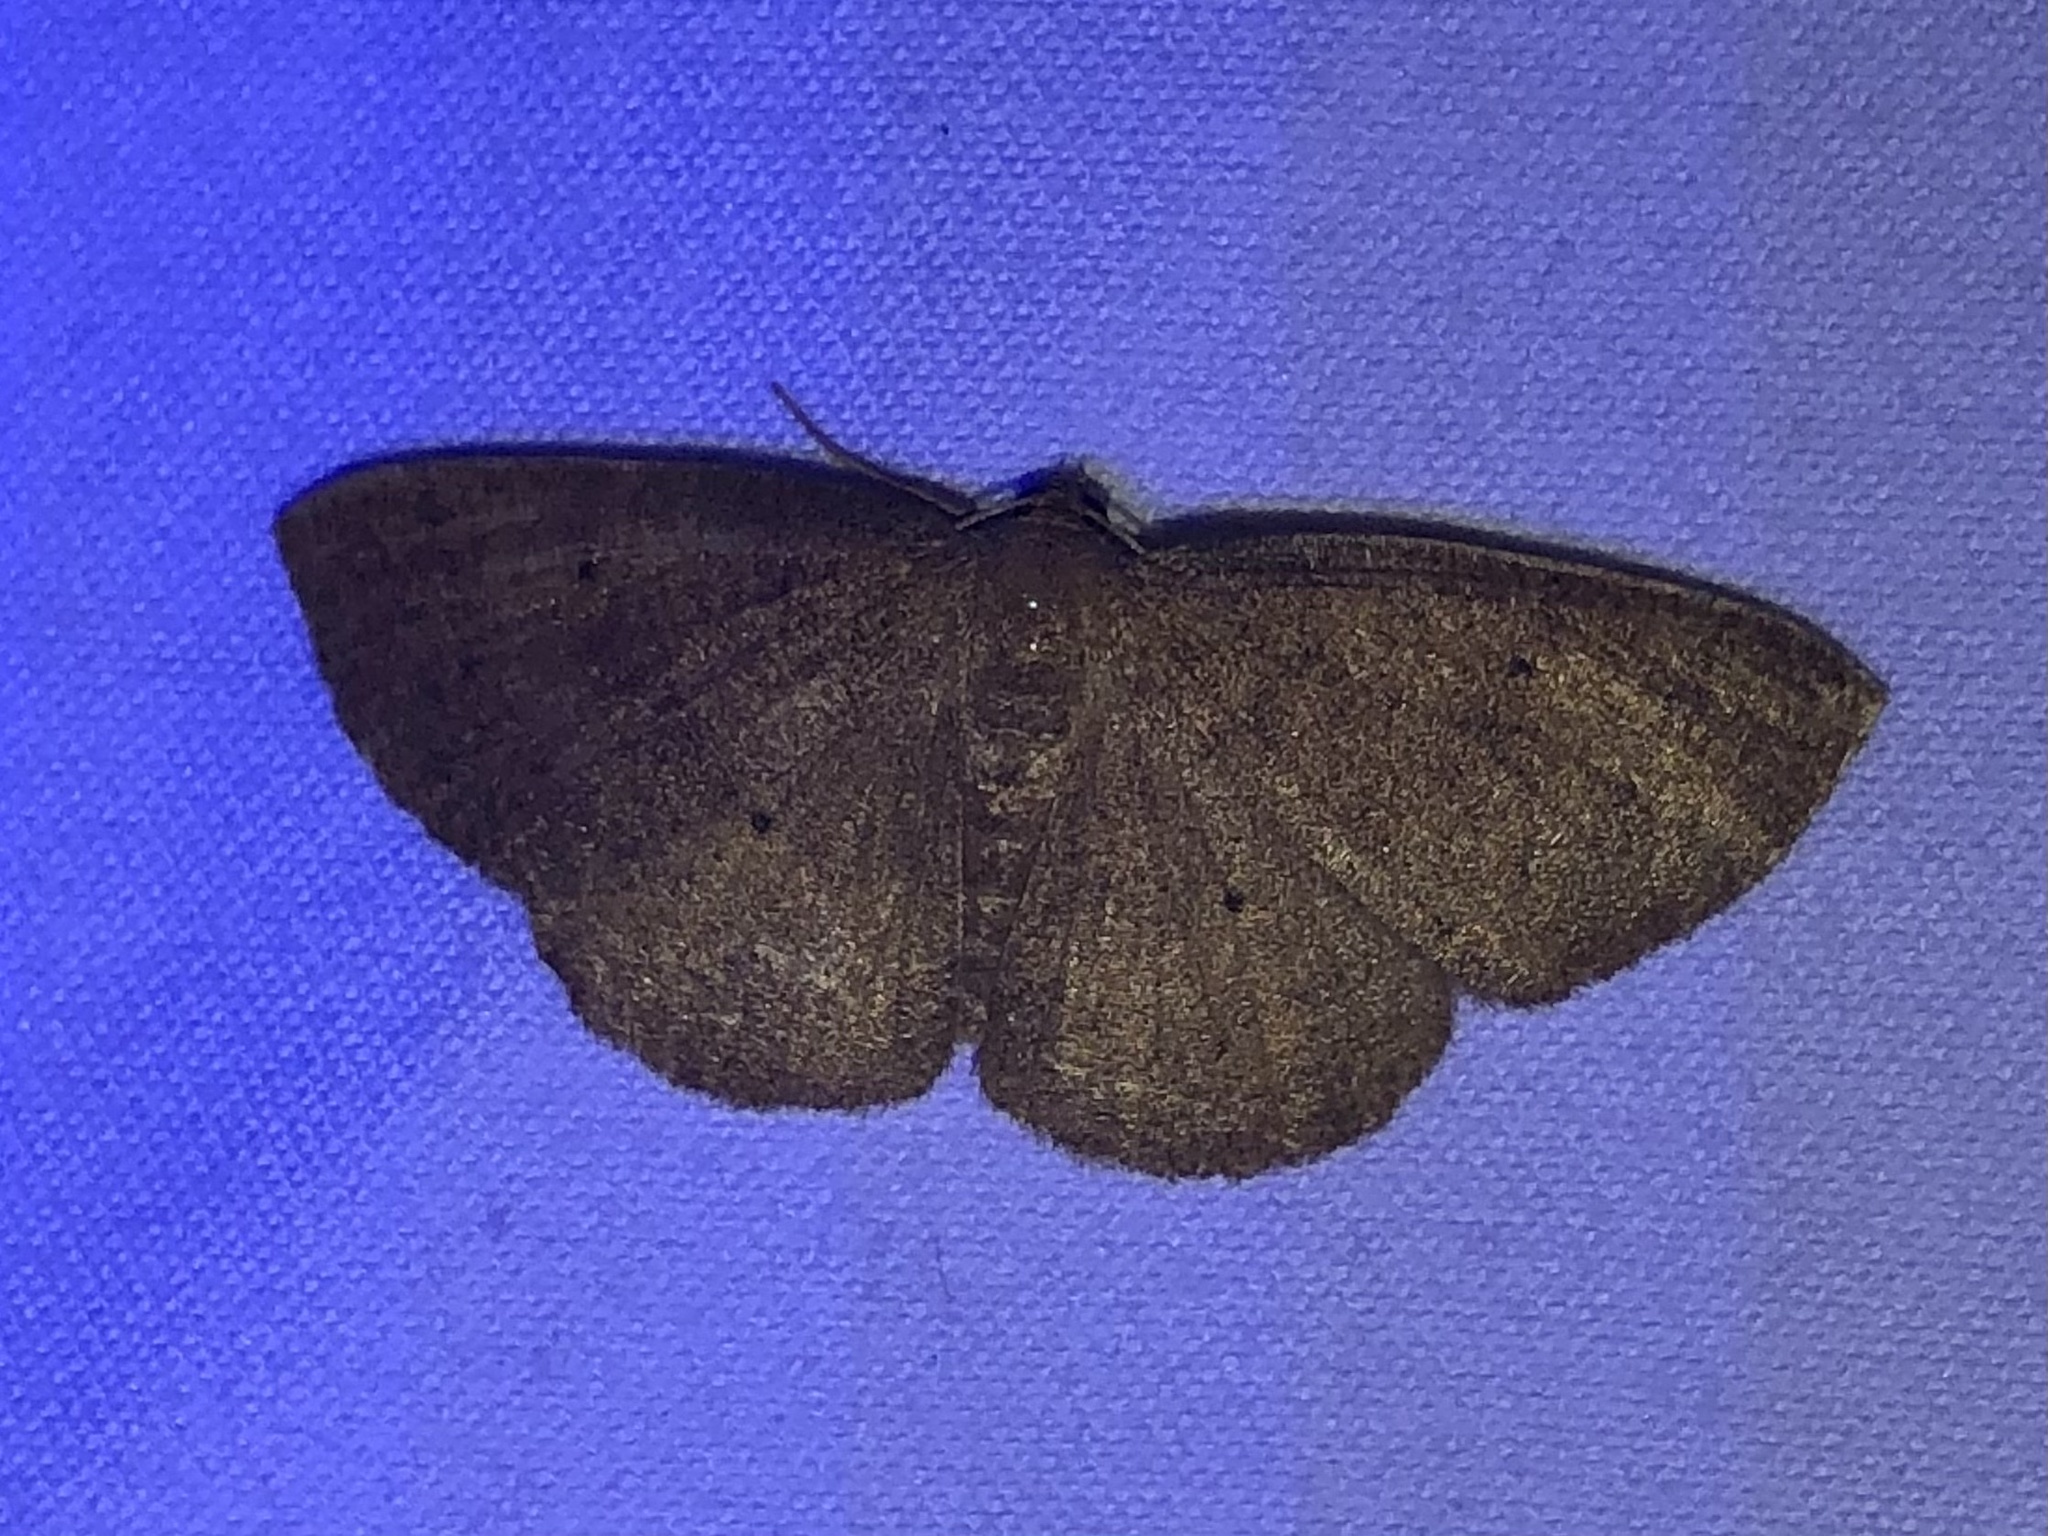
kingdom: Animalia
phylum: Arthropoda
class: Insecta
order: Lepidoptera
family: Geometridae
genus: Ilexia
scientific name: Ilexia intractata
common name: Black-dotted ruddy moth
